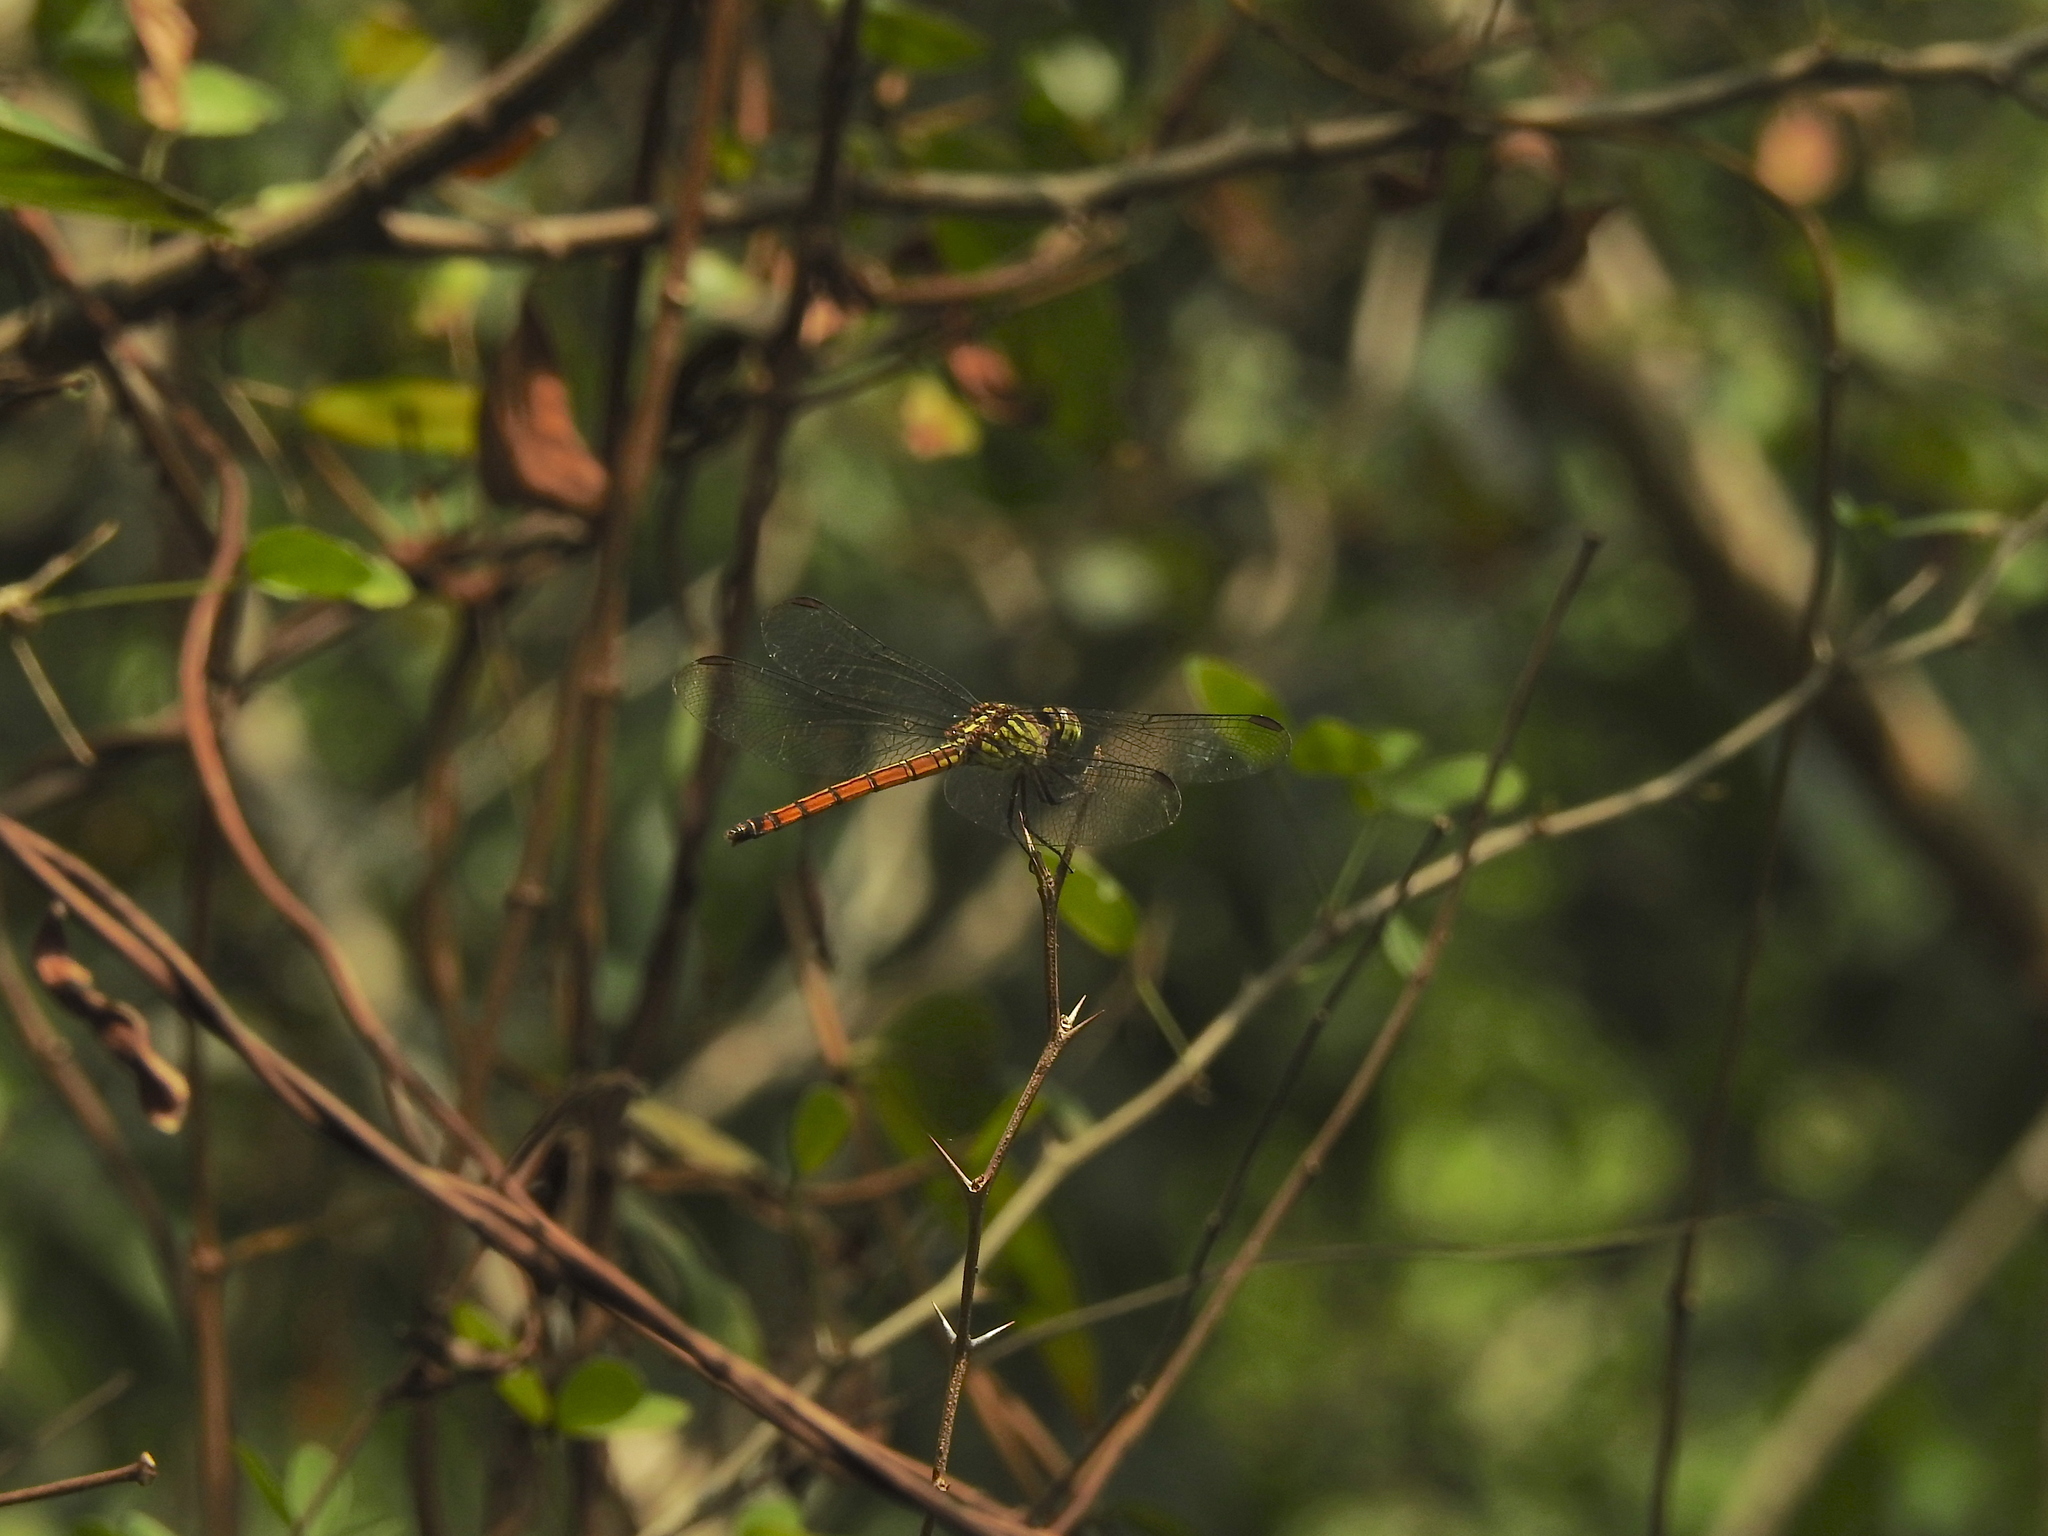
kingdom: Animalia
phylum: Arthropoda
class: Insecta
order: Odonata
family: Libellulidae
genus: Lathrecista
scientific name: Lathrecista asiatica
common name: Scarlet grenadier
